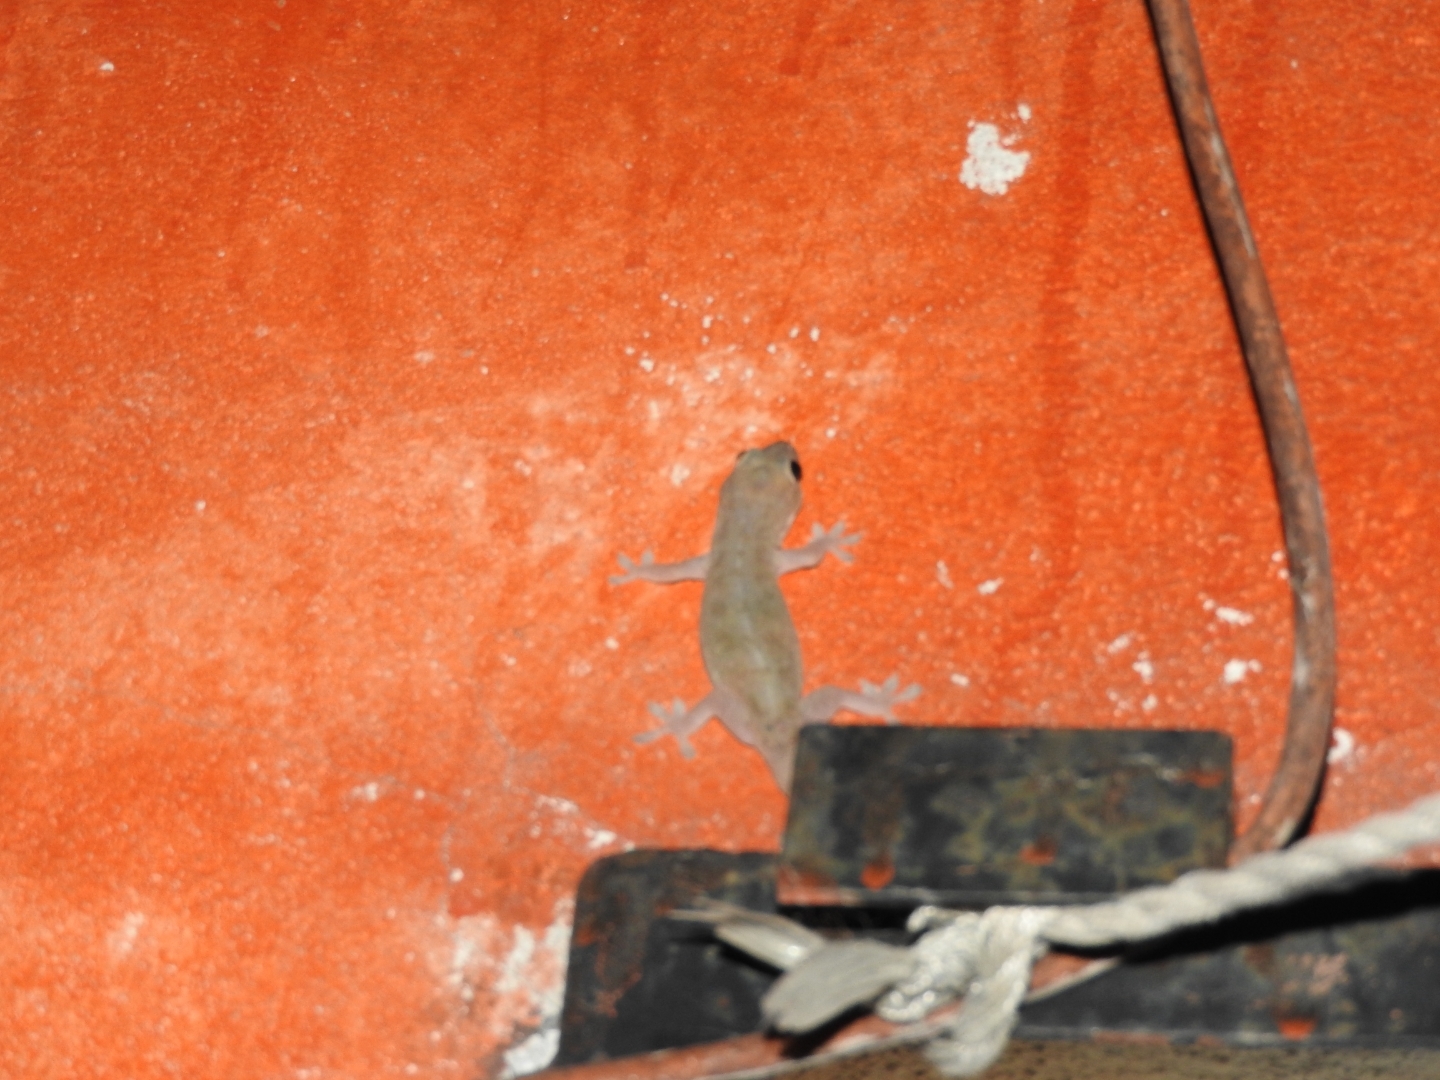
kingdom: Animalia
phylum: Chordata
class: Squamata
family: Gekkonidae
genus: Hemidactylus
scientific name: Hemidactylus frenatus
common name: Common house gecko
